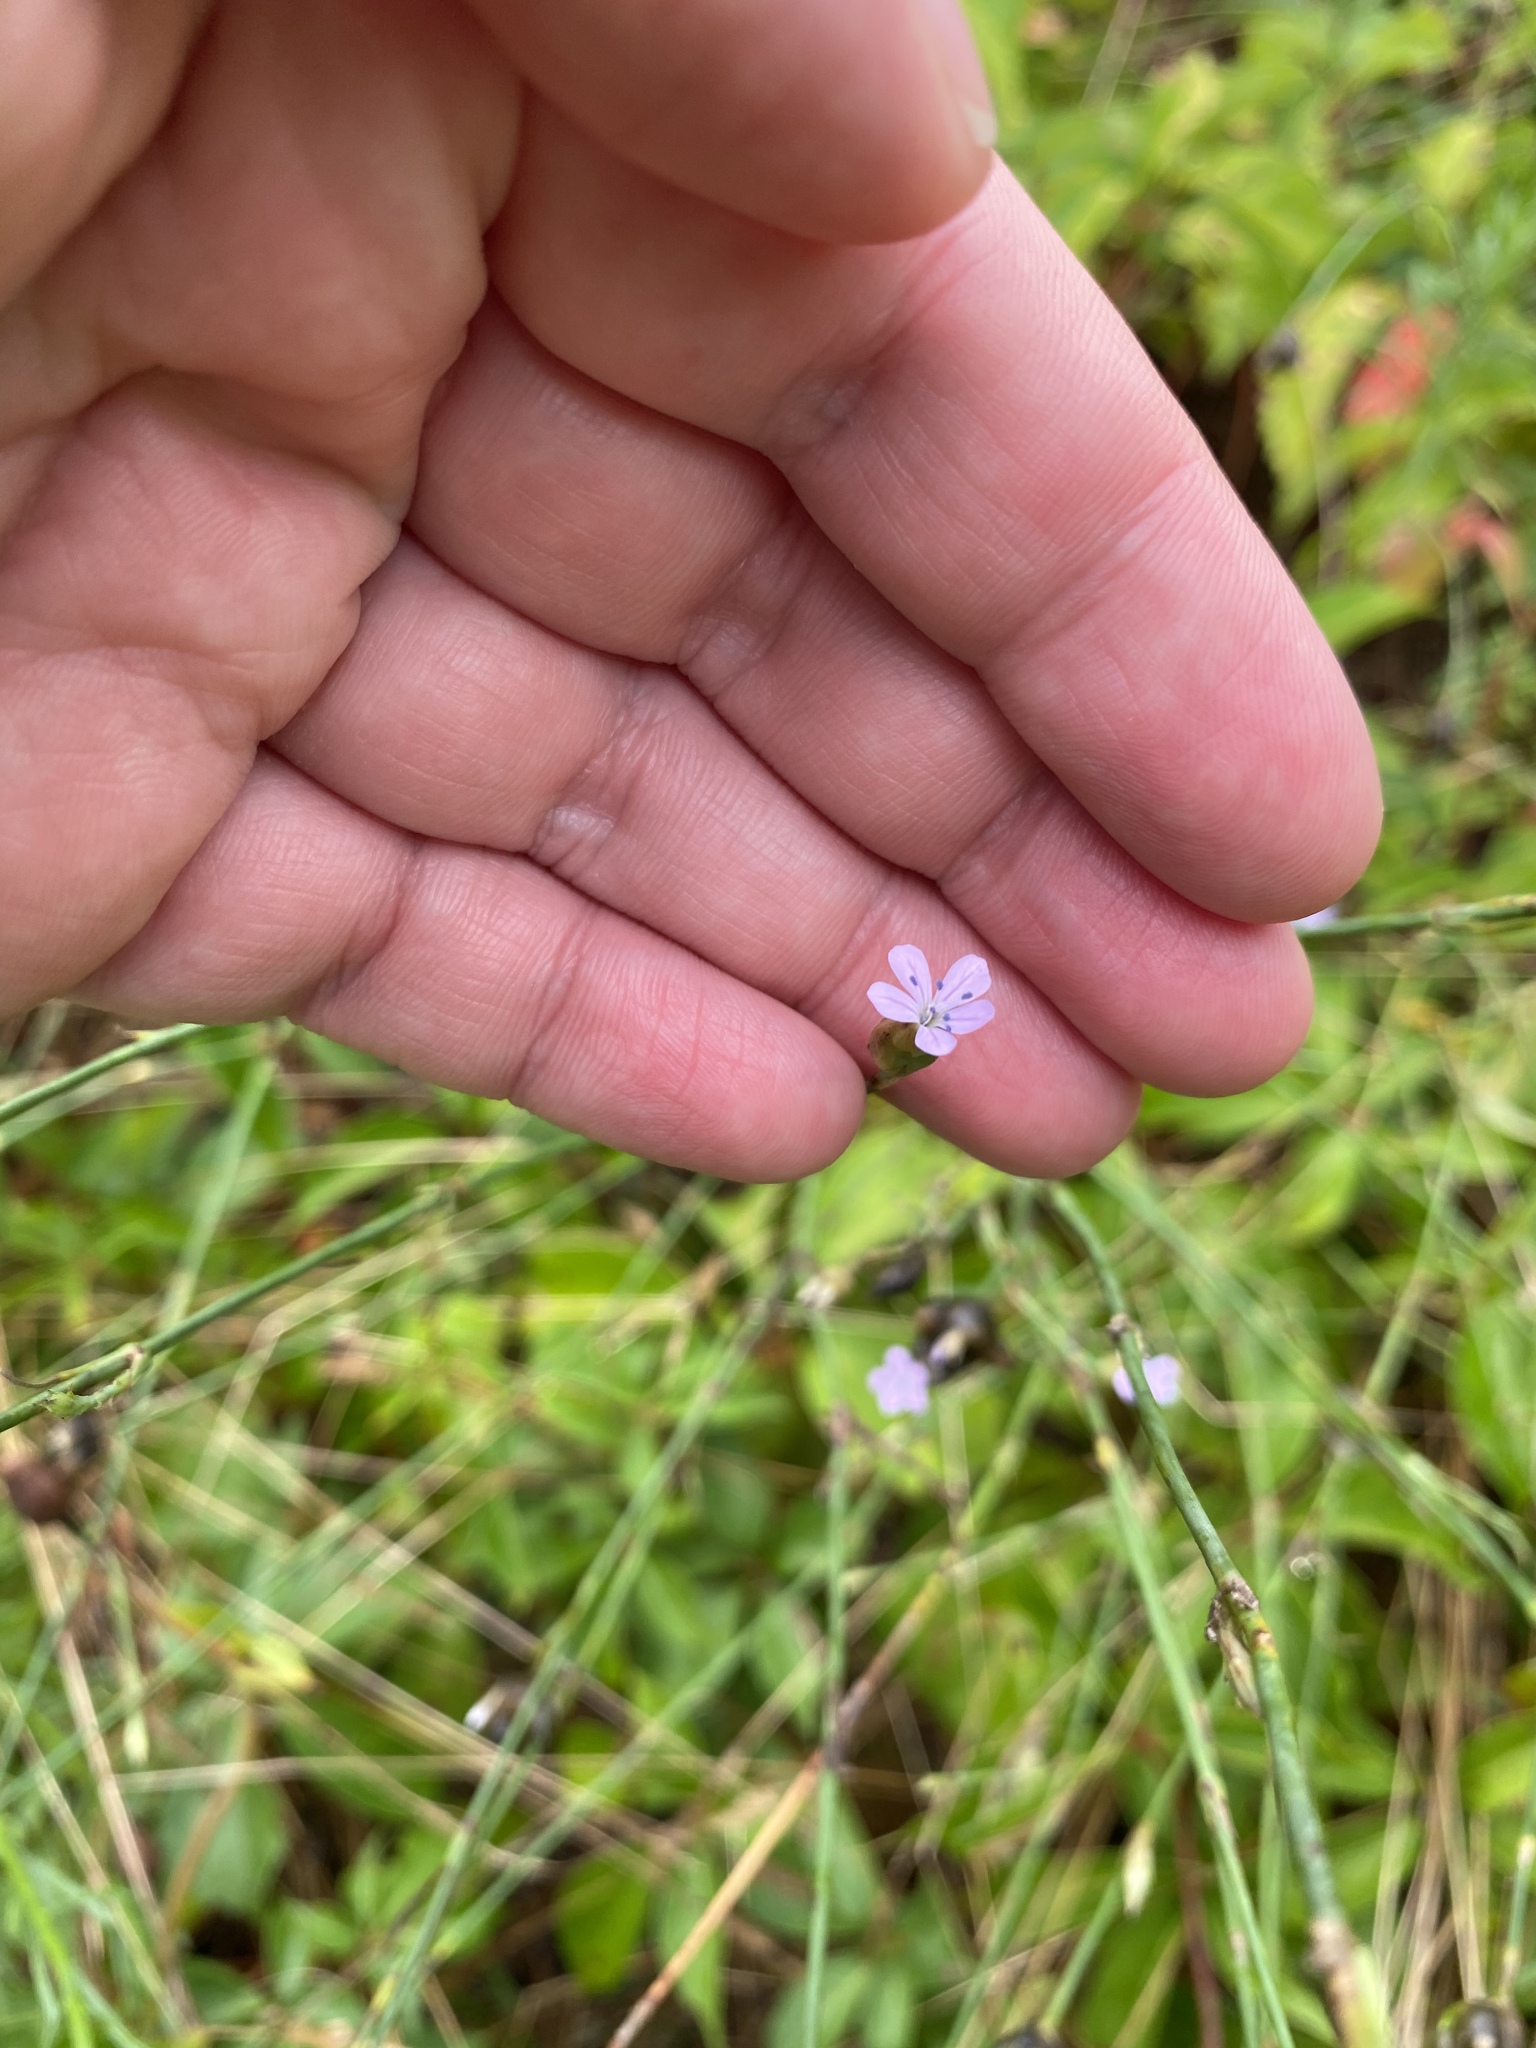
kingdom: Plantae
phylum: Tracheophyta
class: Magnoliopsida
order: Caryophyllales
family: Caryophyllaceae
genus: Petrorhagia
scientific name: Petrorhagia prolifera
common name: Proliferous pink
